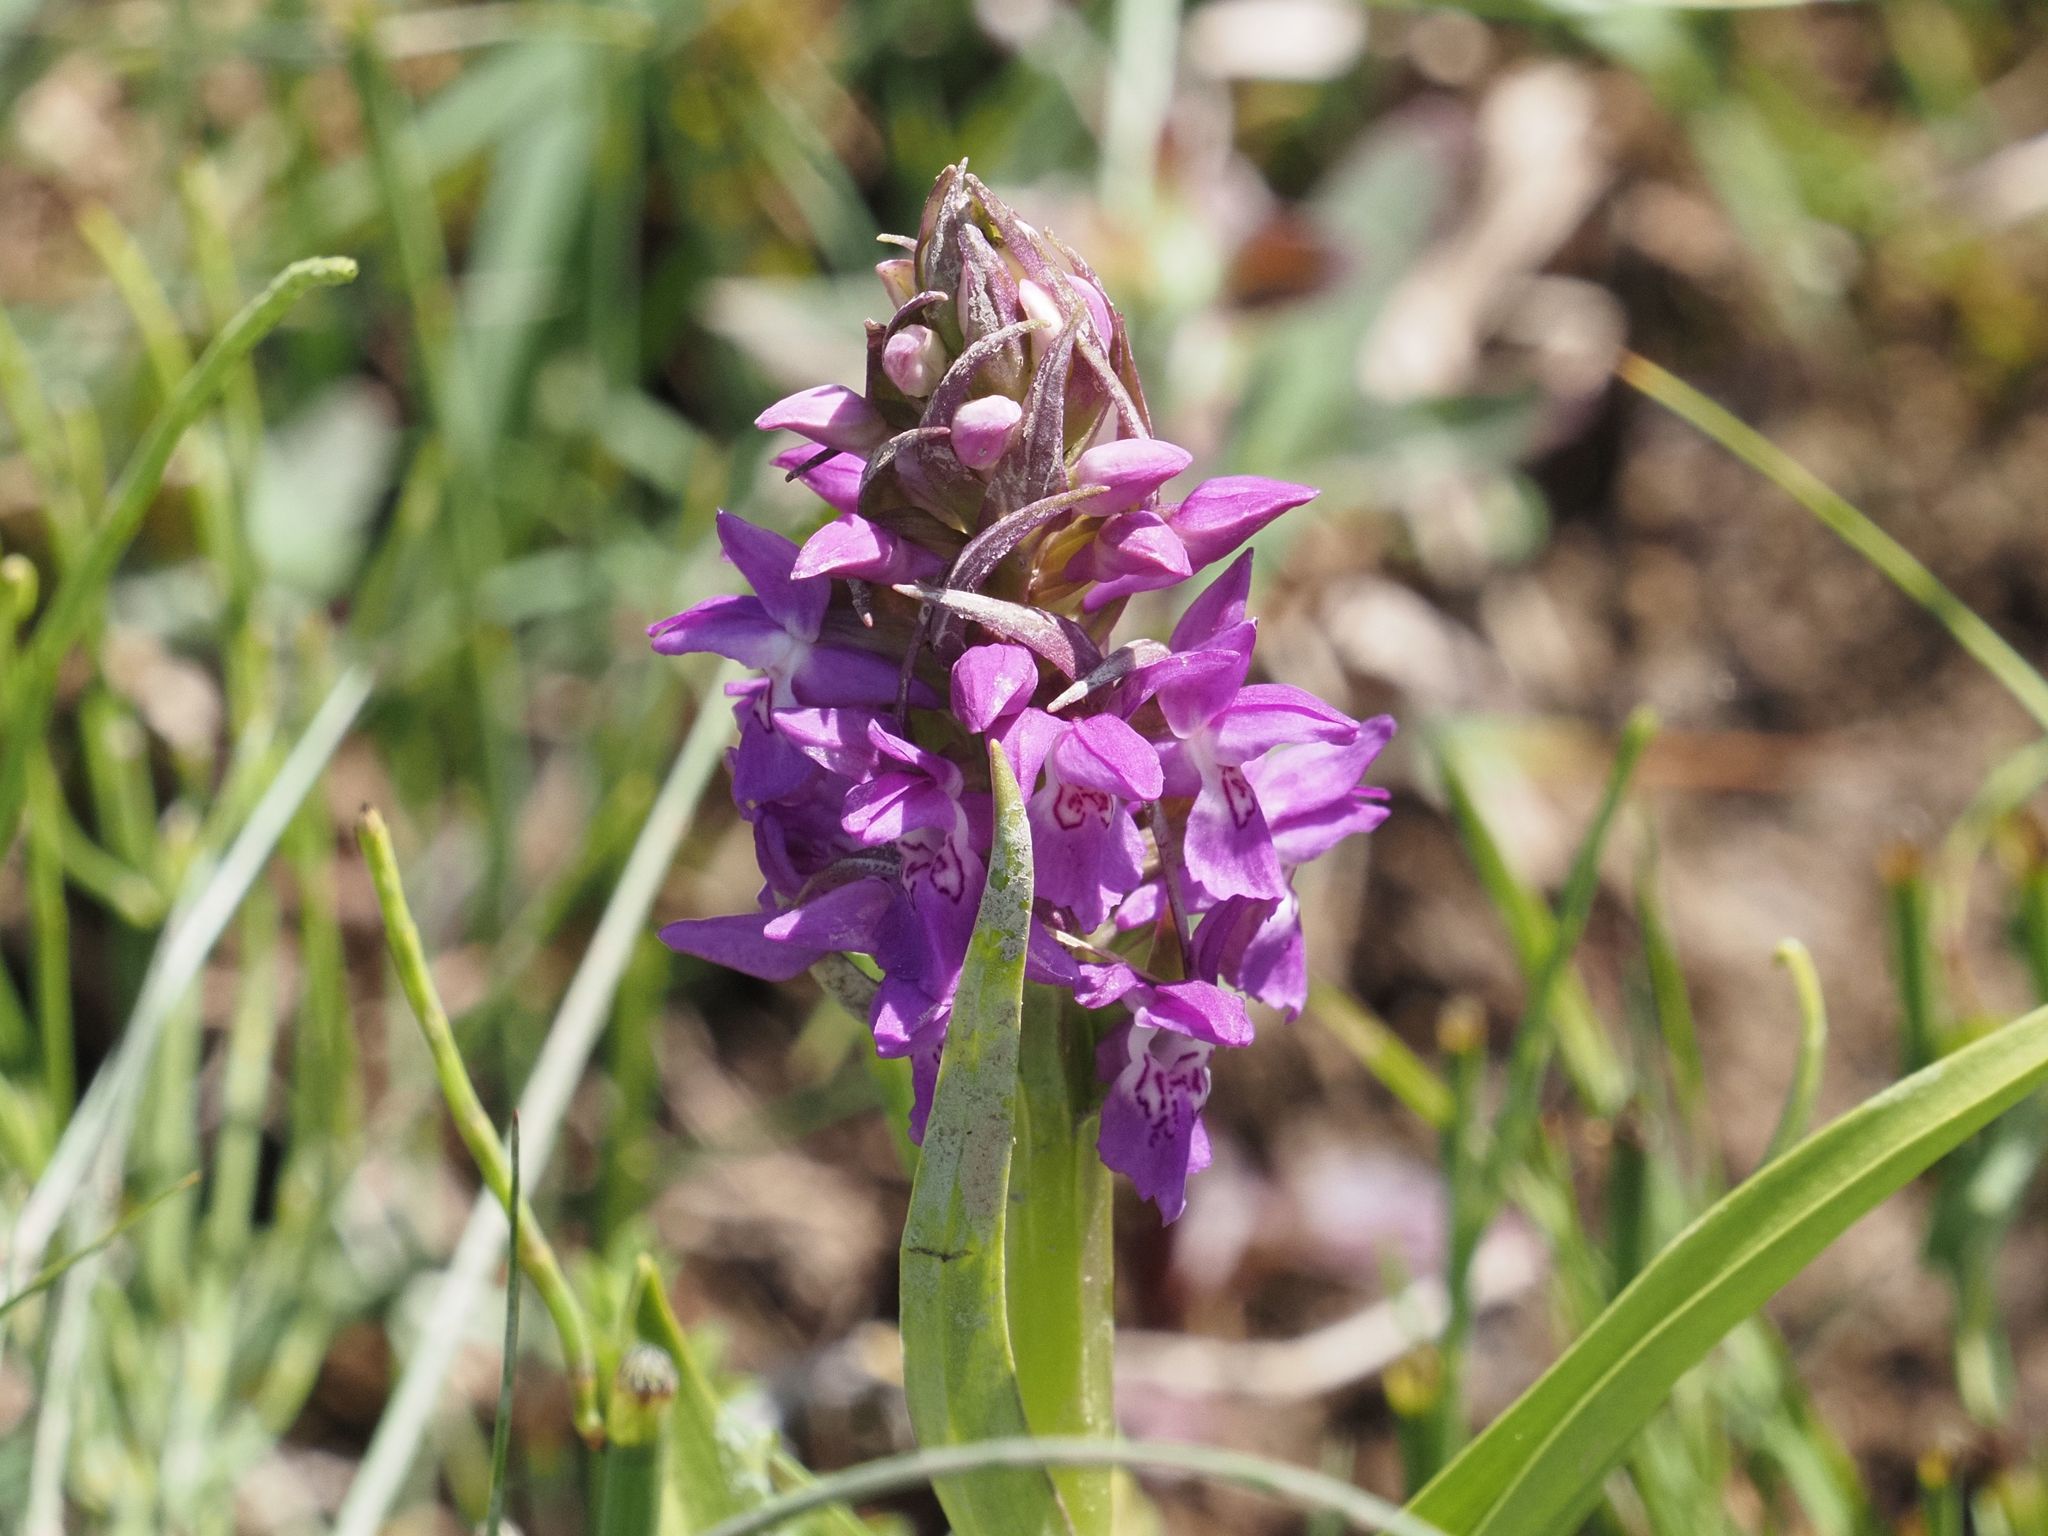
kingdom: Plantae
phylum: Tracheophyta
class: Liliopsida
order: Asparagales
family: Orchidaceae
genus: Dactylorhiza
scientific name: Dactylorhiza majalis
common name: Marsh orchid
